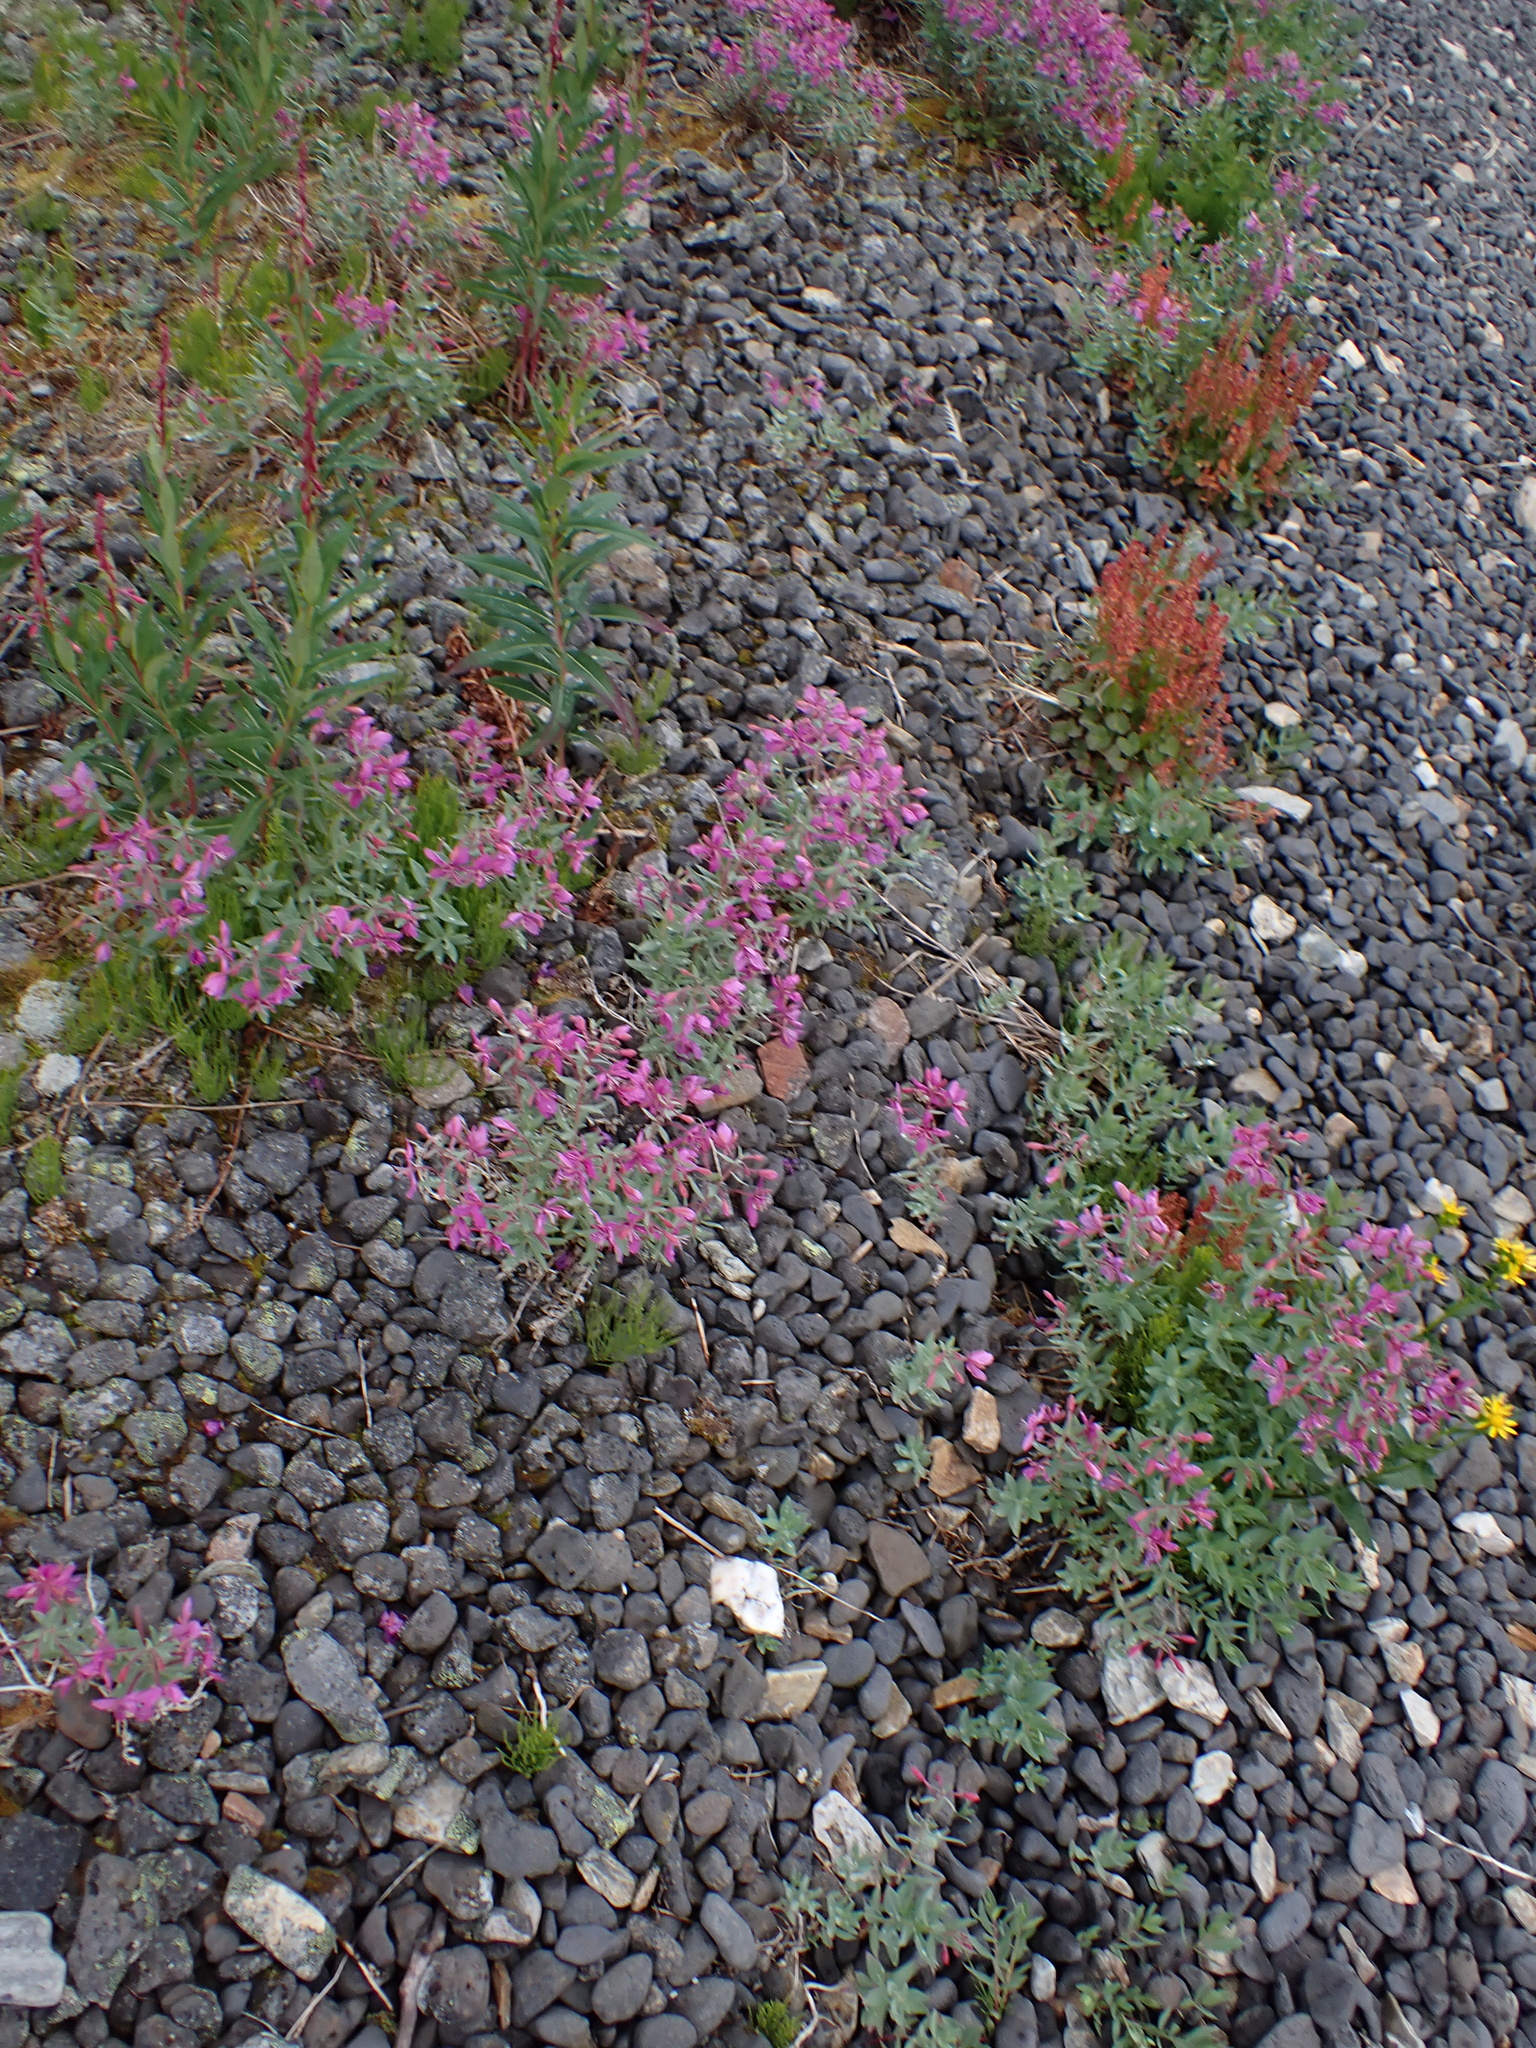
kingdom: Plantae
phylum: Tracheophyta
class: Magnoliopsida
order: Myrtales
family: Onagraceae
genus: Chamaenerion
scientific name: Chamaenerion latifolium
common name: Dwarf fireweed
